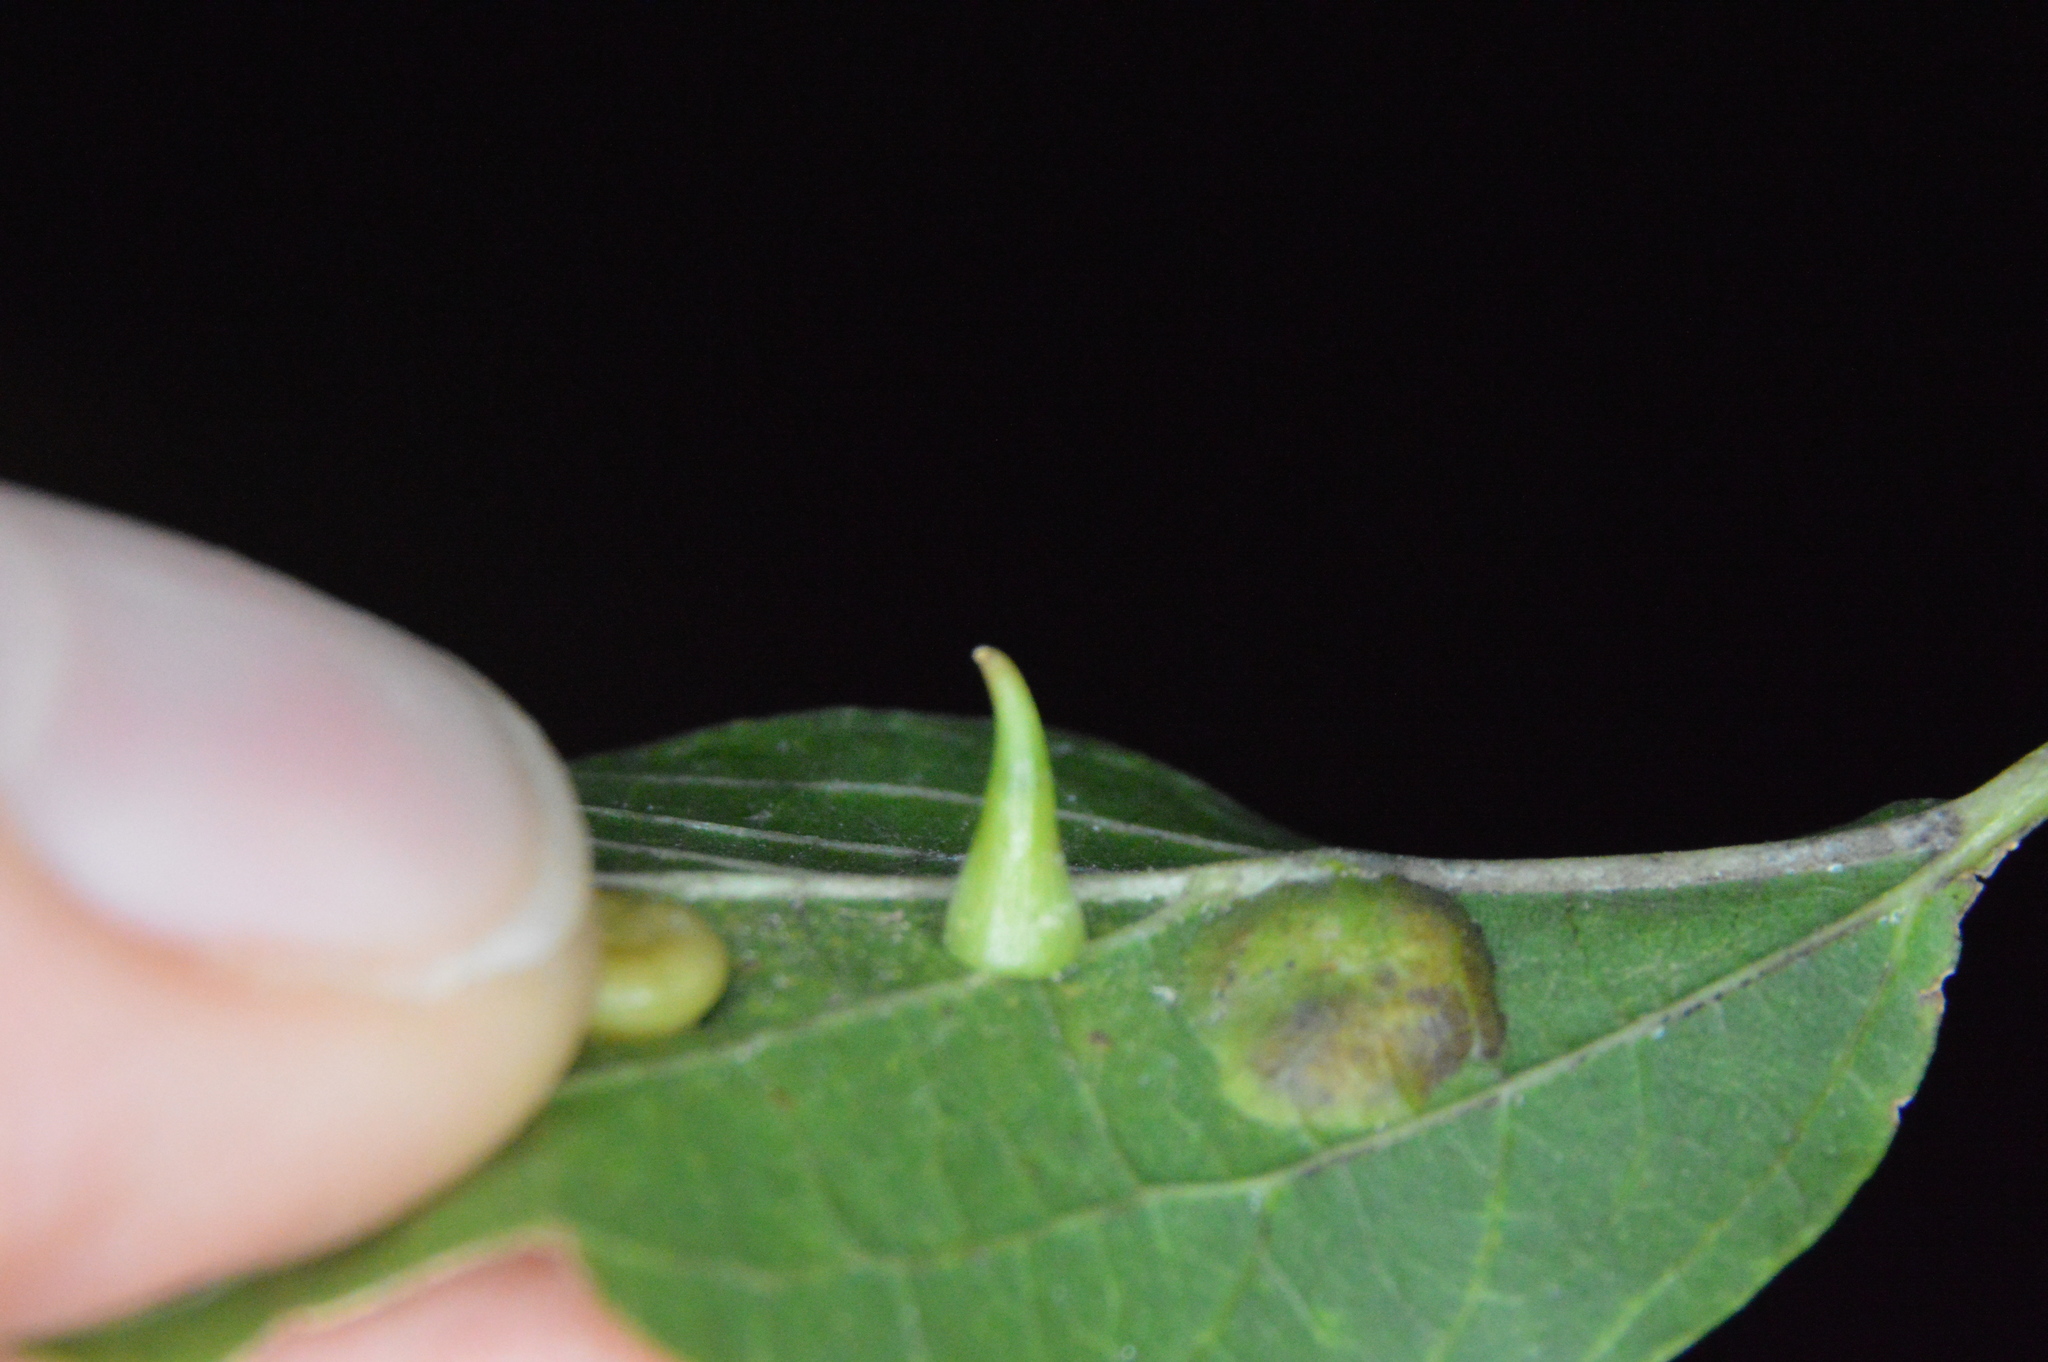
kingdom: Animalia
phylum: Arthropoda
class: Insecta
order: Diptera
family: Cecidomyiidae
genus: Celticecis
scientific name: Celticecis subulata
